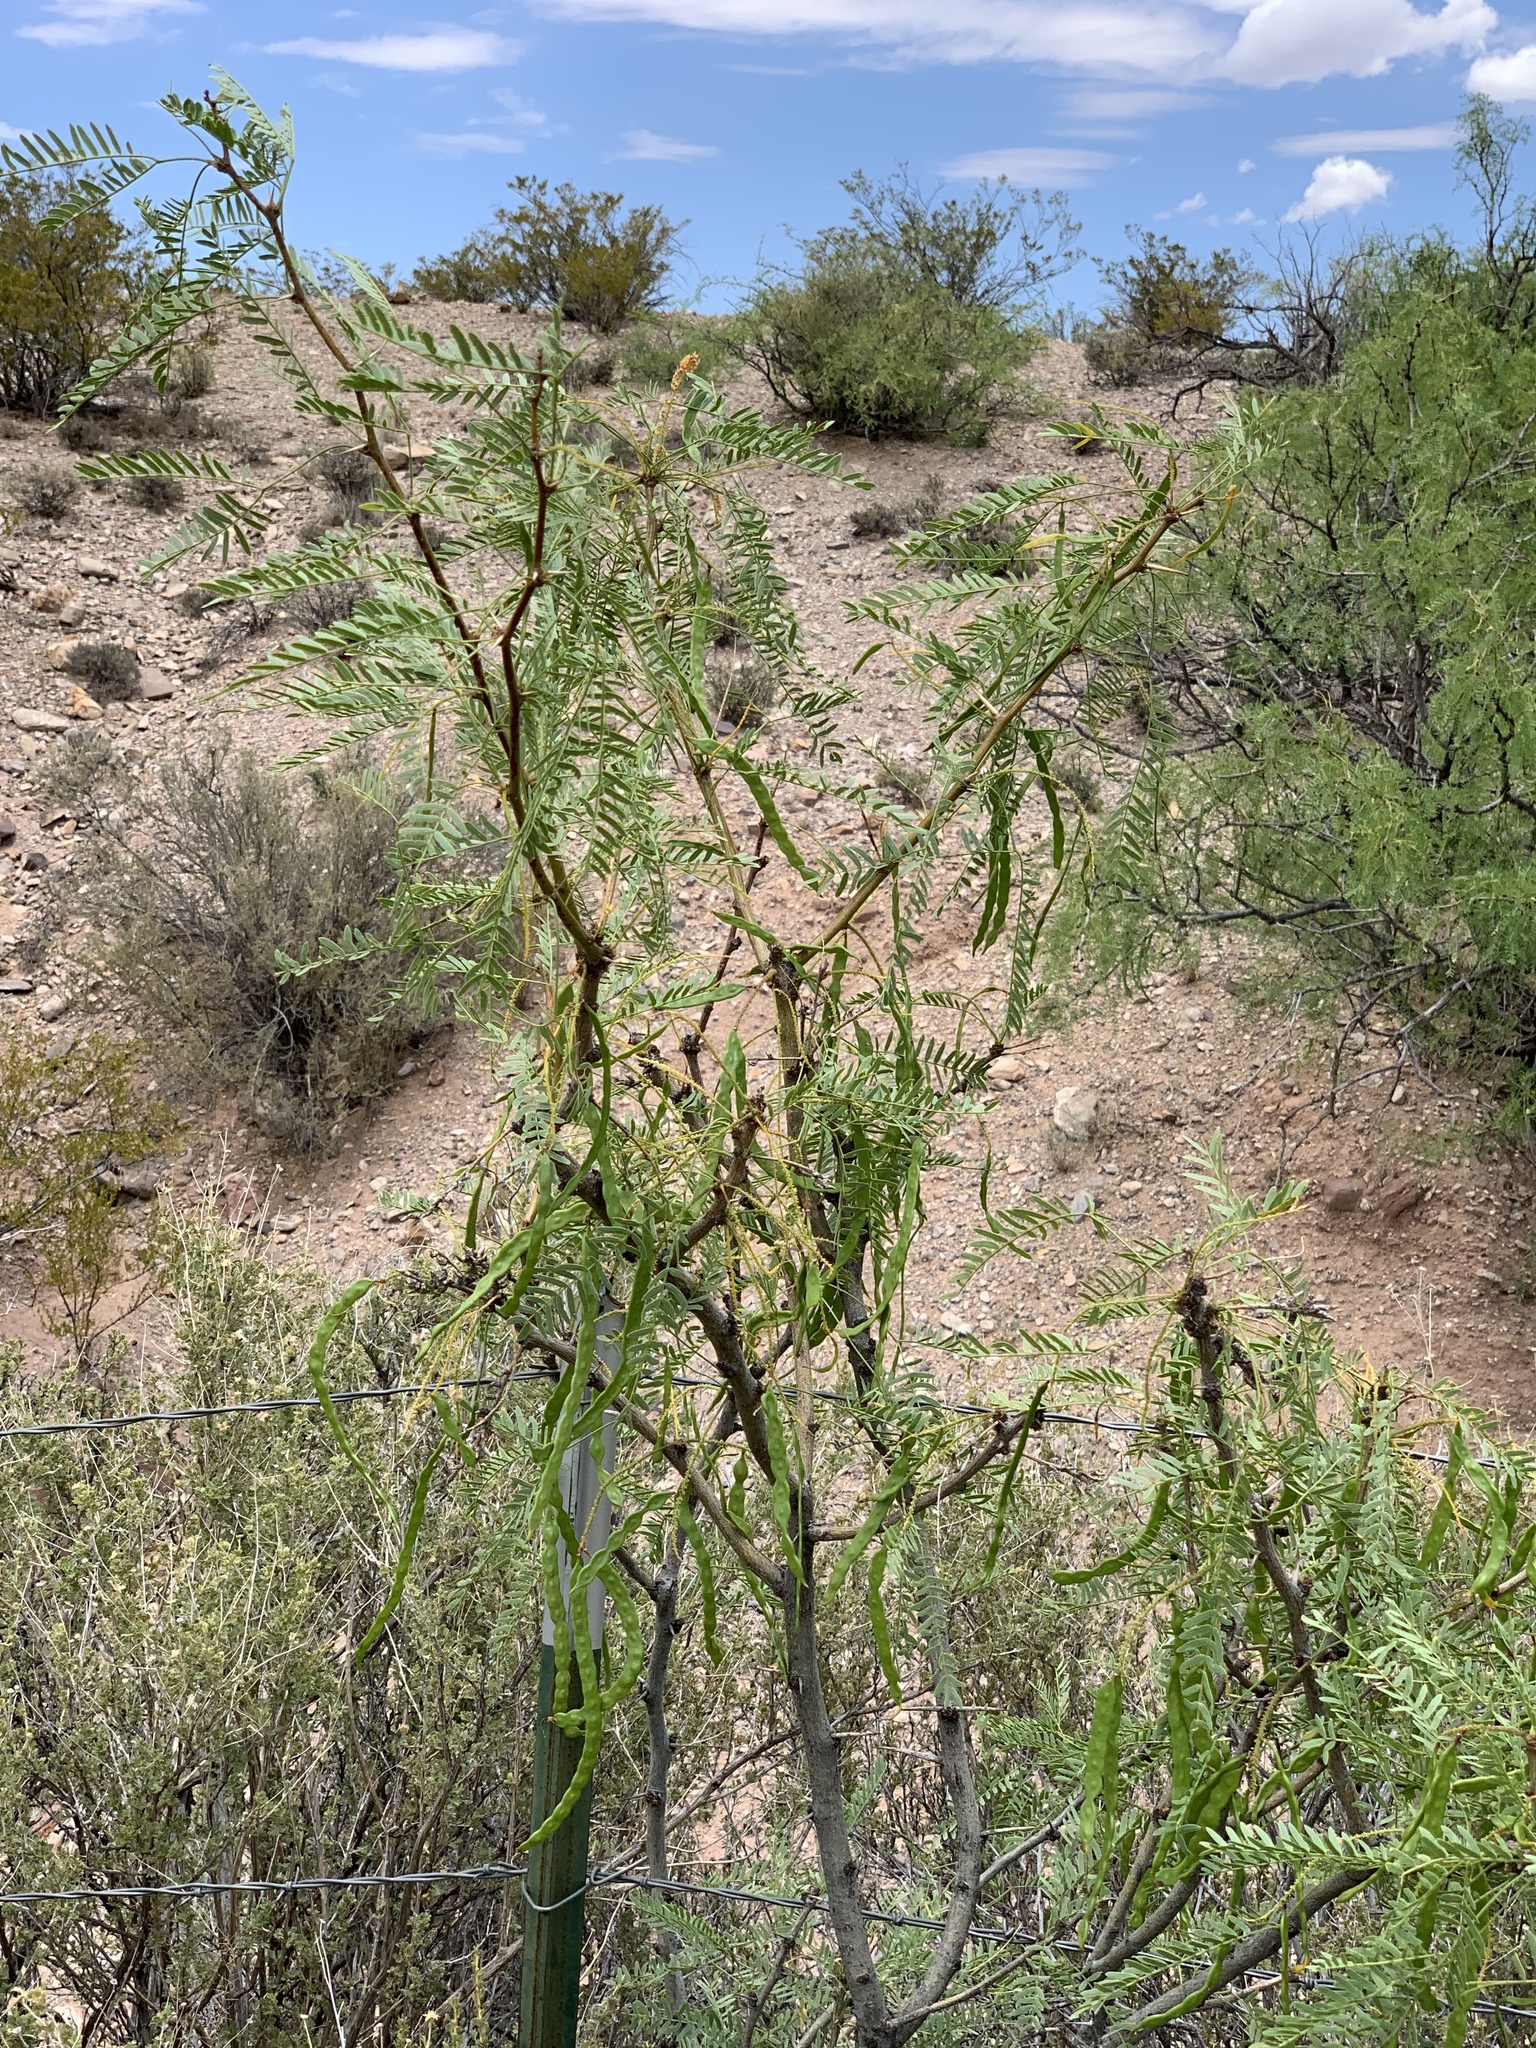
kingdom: Plantae
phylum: Tracheophyta
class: Magnoliopsida
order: Fabales
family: Fabaceae
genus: Prosopis
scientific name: Prosopis glandulosa
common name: Honey mesquite
